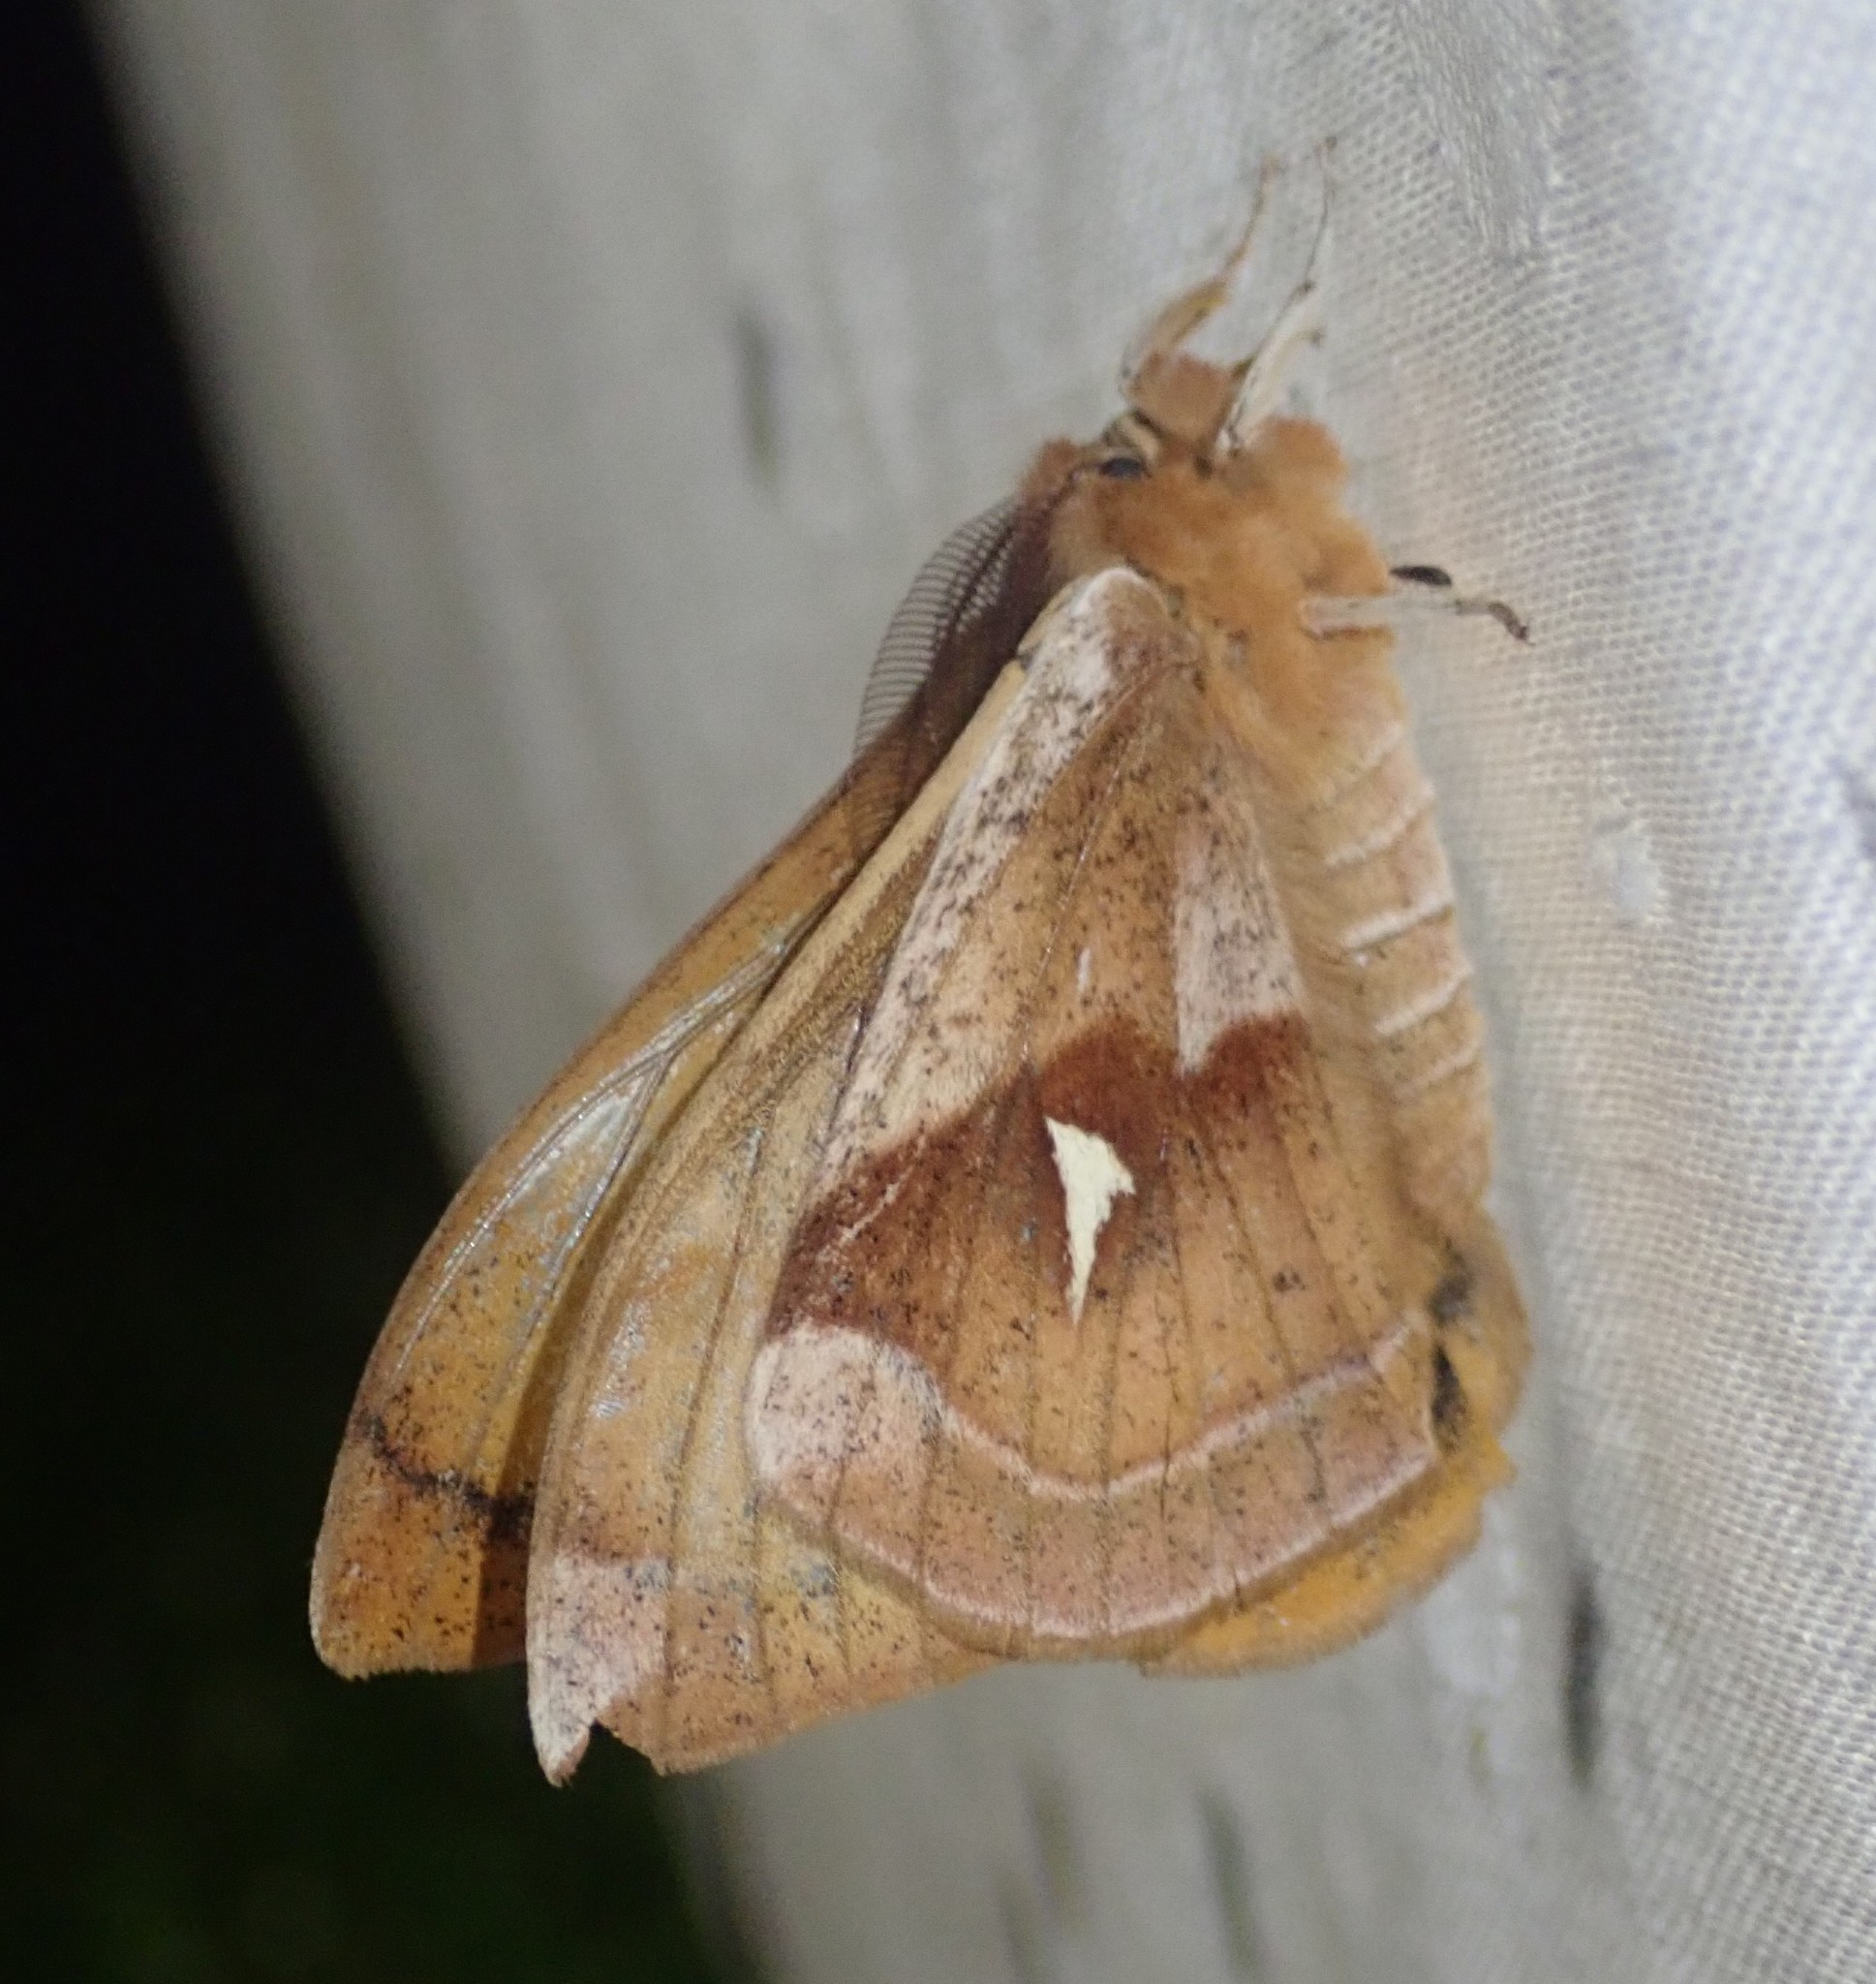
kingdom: Animalia
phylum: Arthropoda
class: Insecta
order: Lepidoptera
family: Saturniidae
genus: Aglia
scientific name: Aglia tau
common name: Tau emperor
